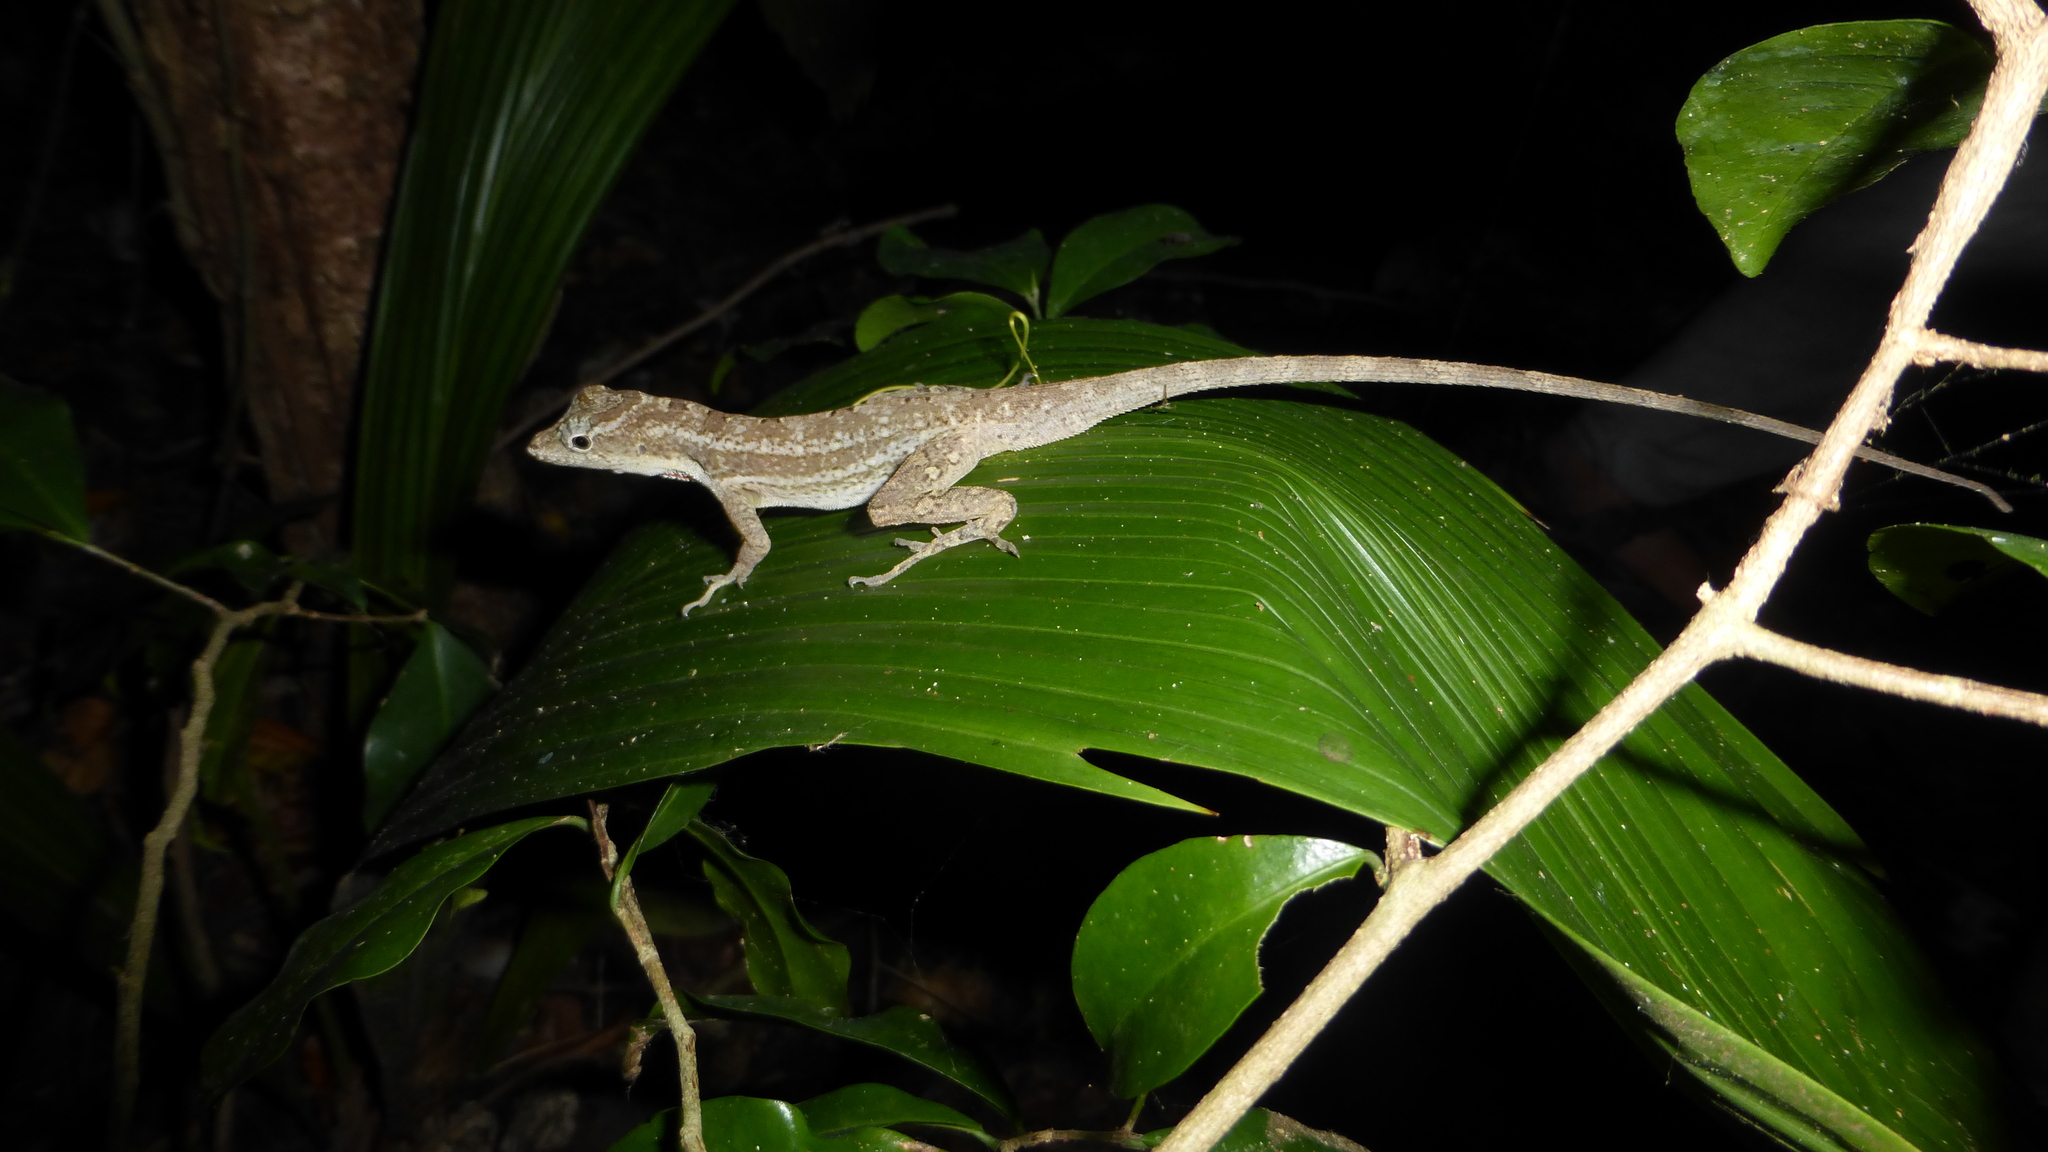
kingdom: Animalia
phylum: Chordata
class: Squamata
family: Dactyloidae
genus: Anolis
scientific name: Anolis bicaorum
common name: Bay islands anole
